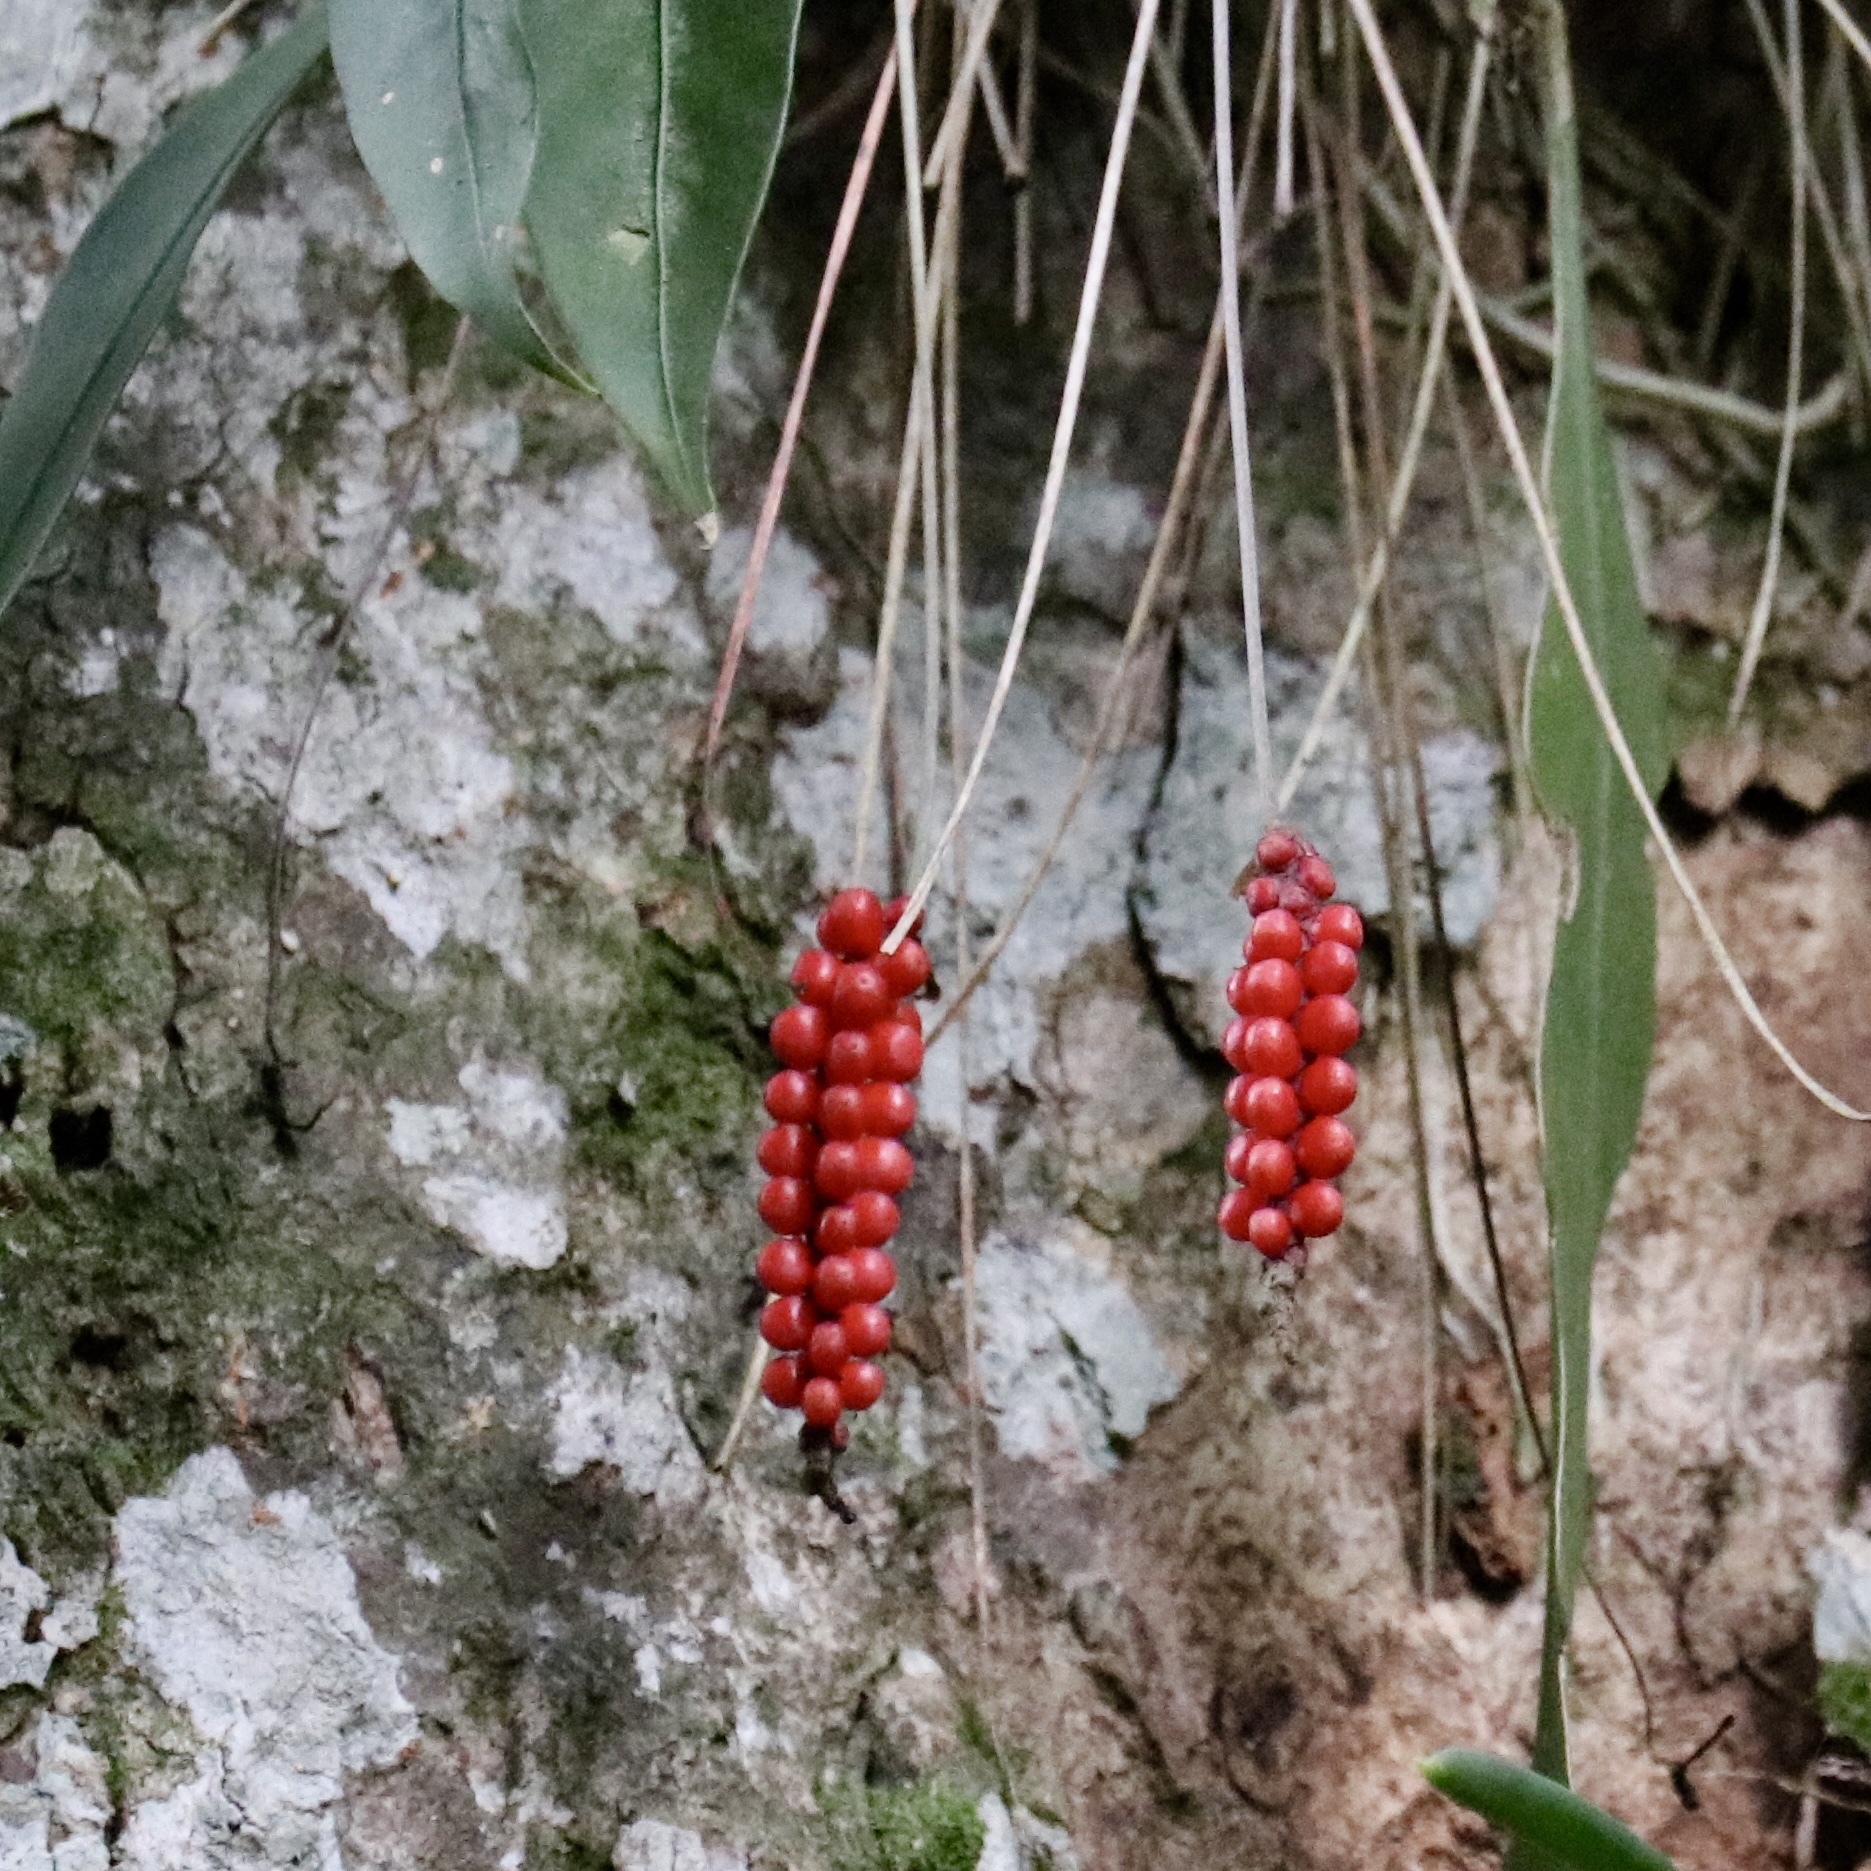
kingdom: Plantae
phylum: Tracheophyta
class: Liliopsida
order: Alismatales
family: Araceae
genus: Anthurium
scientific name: Anthurium gracile
